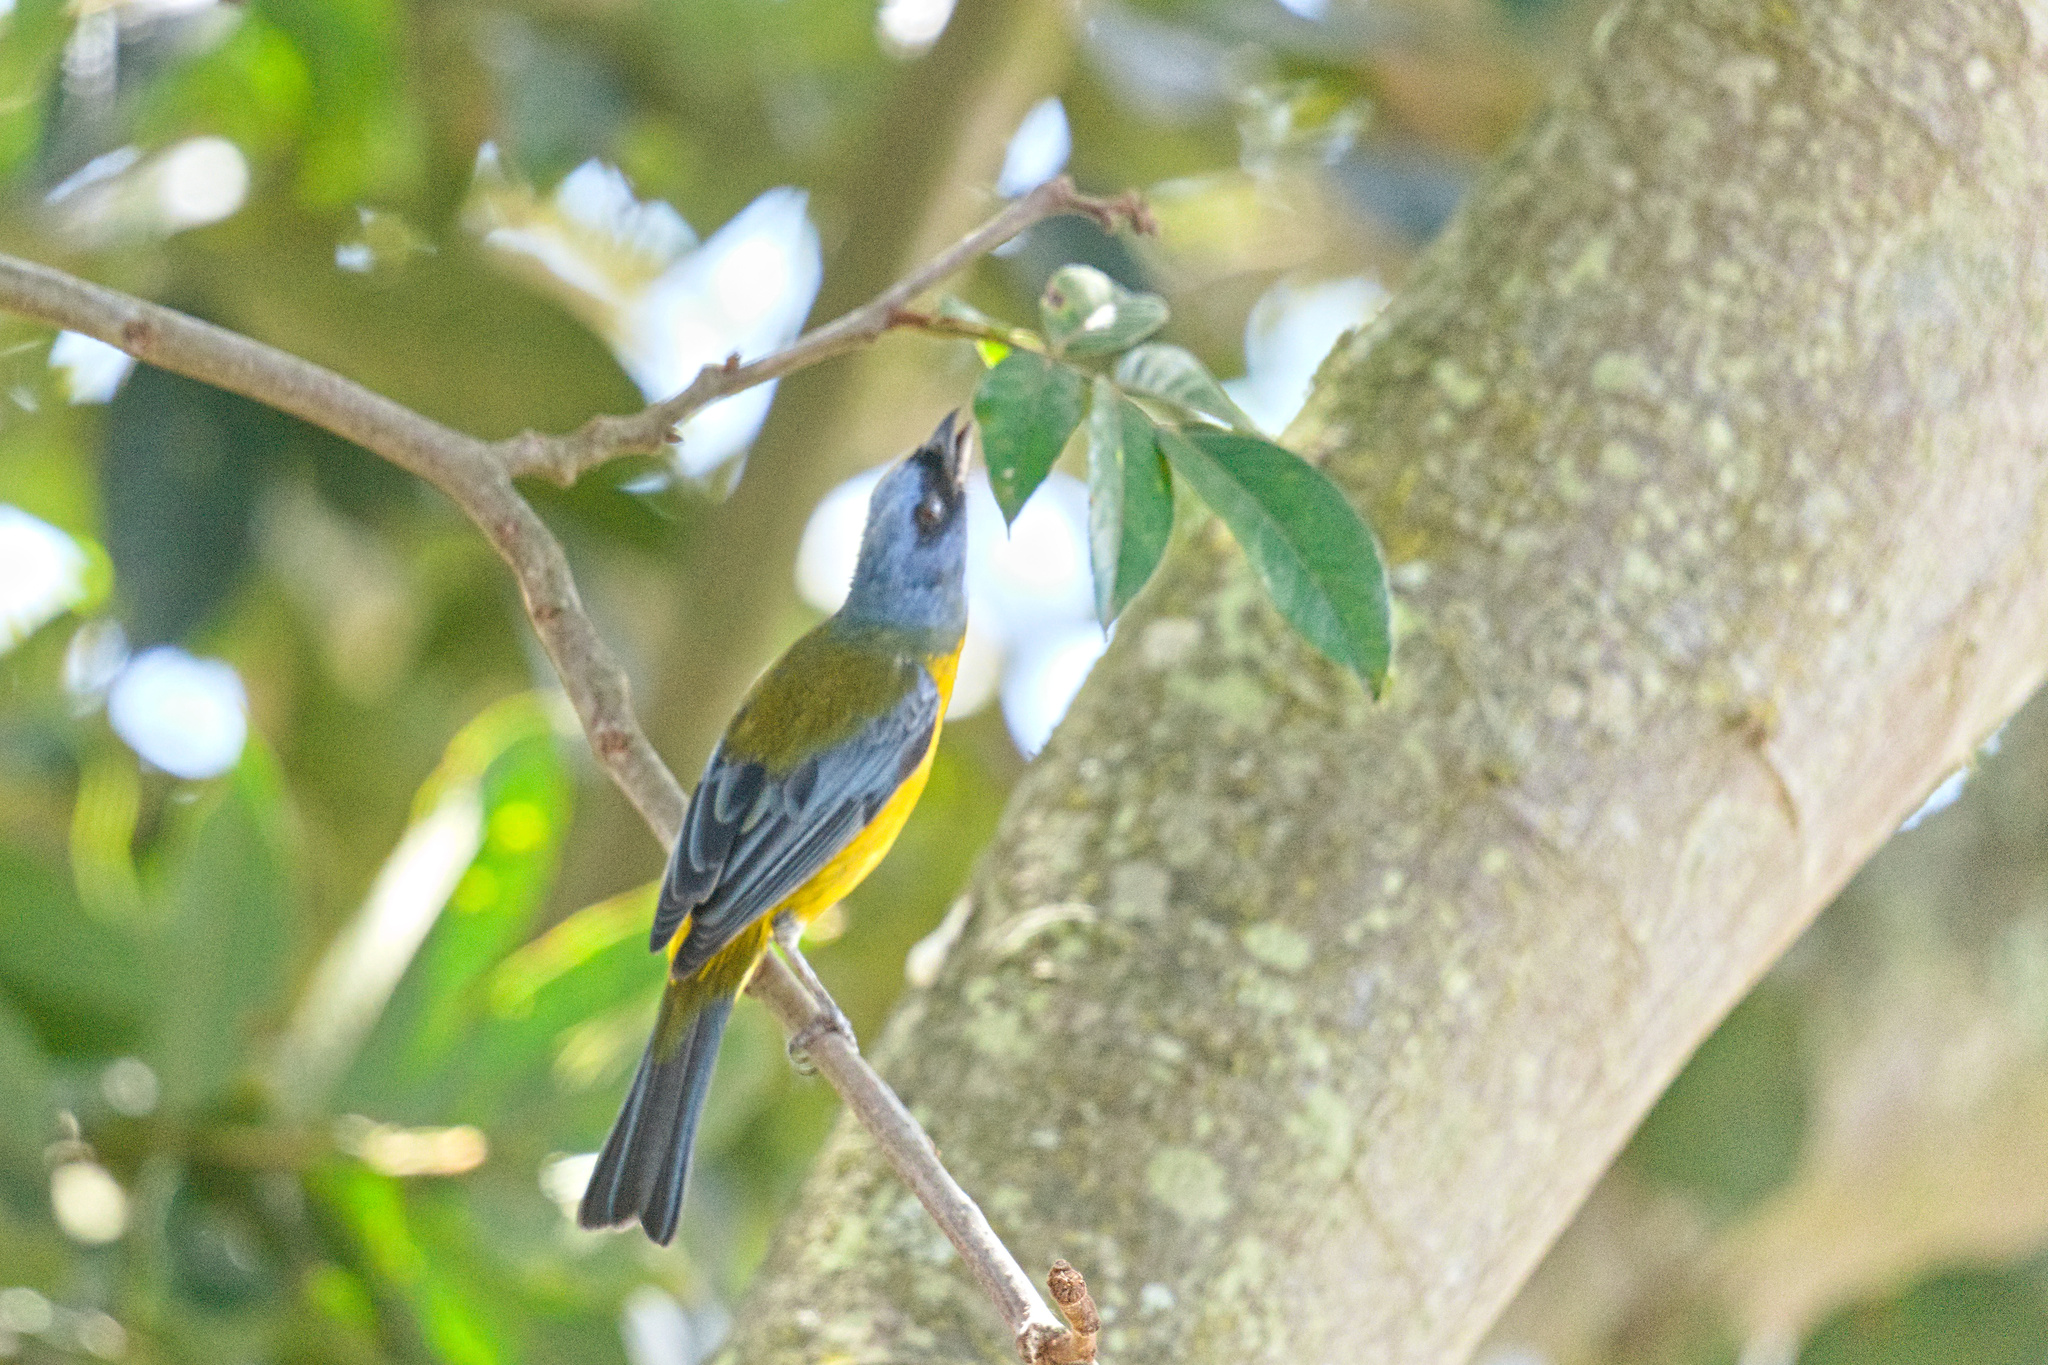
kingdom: Animalia
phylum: Chordata
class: Aves
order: Passeriformes
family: Thraupidae
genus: Rauenia
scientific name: Rauenia bonariensis
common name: Blue-and-yellow tanager
